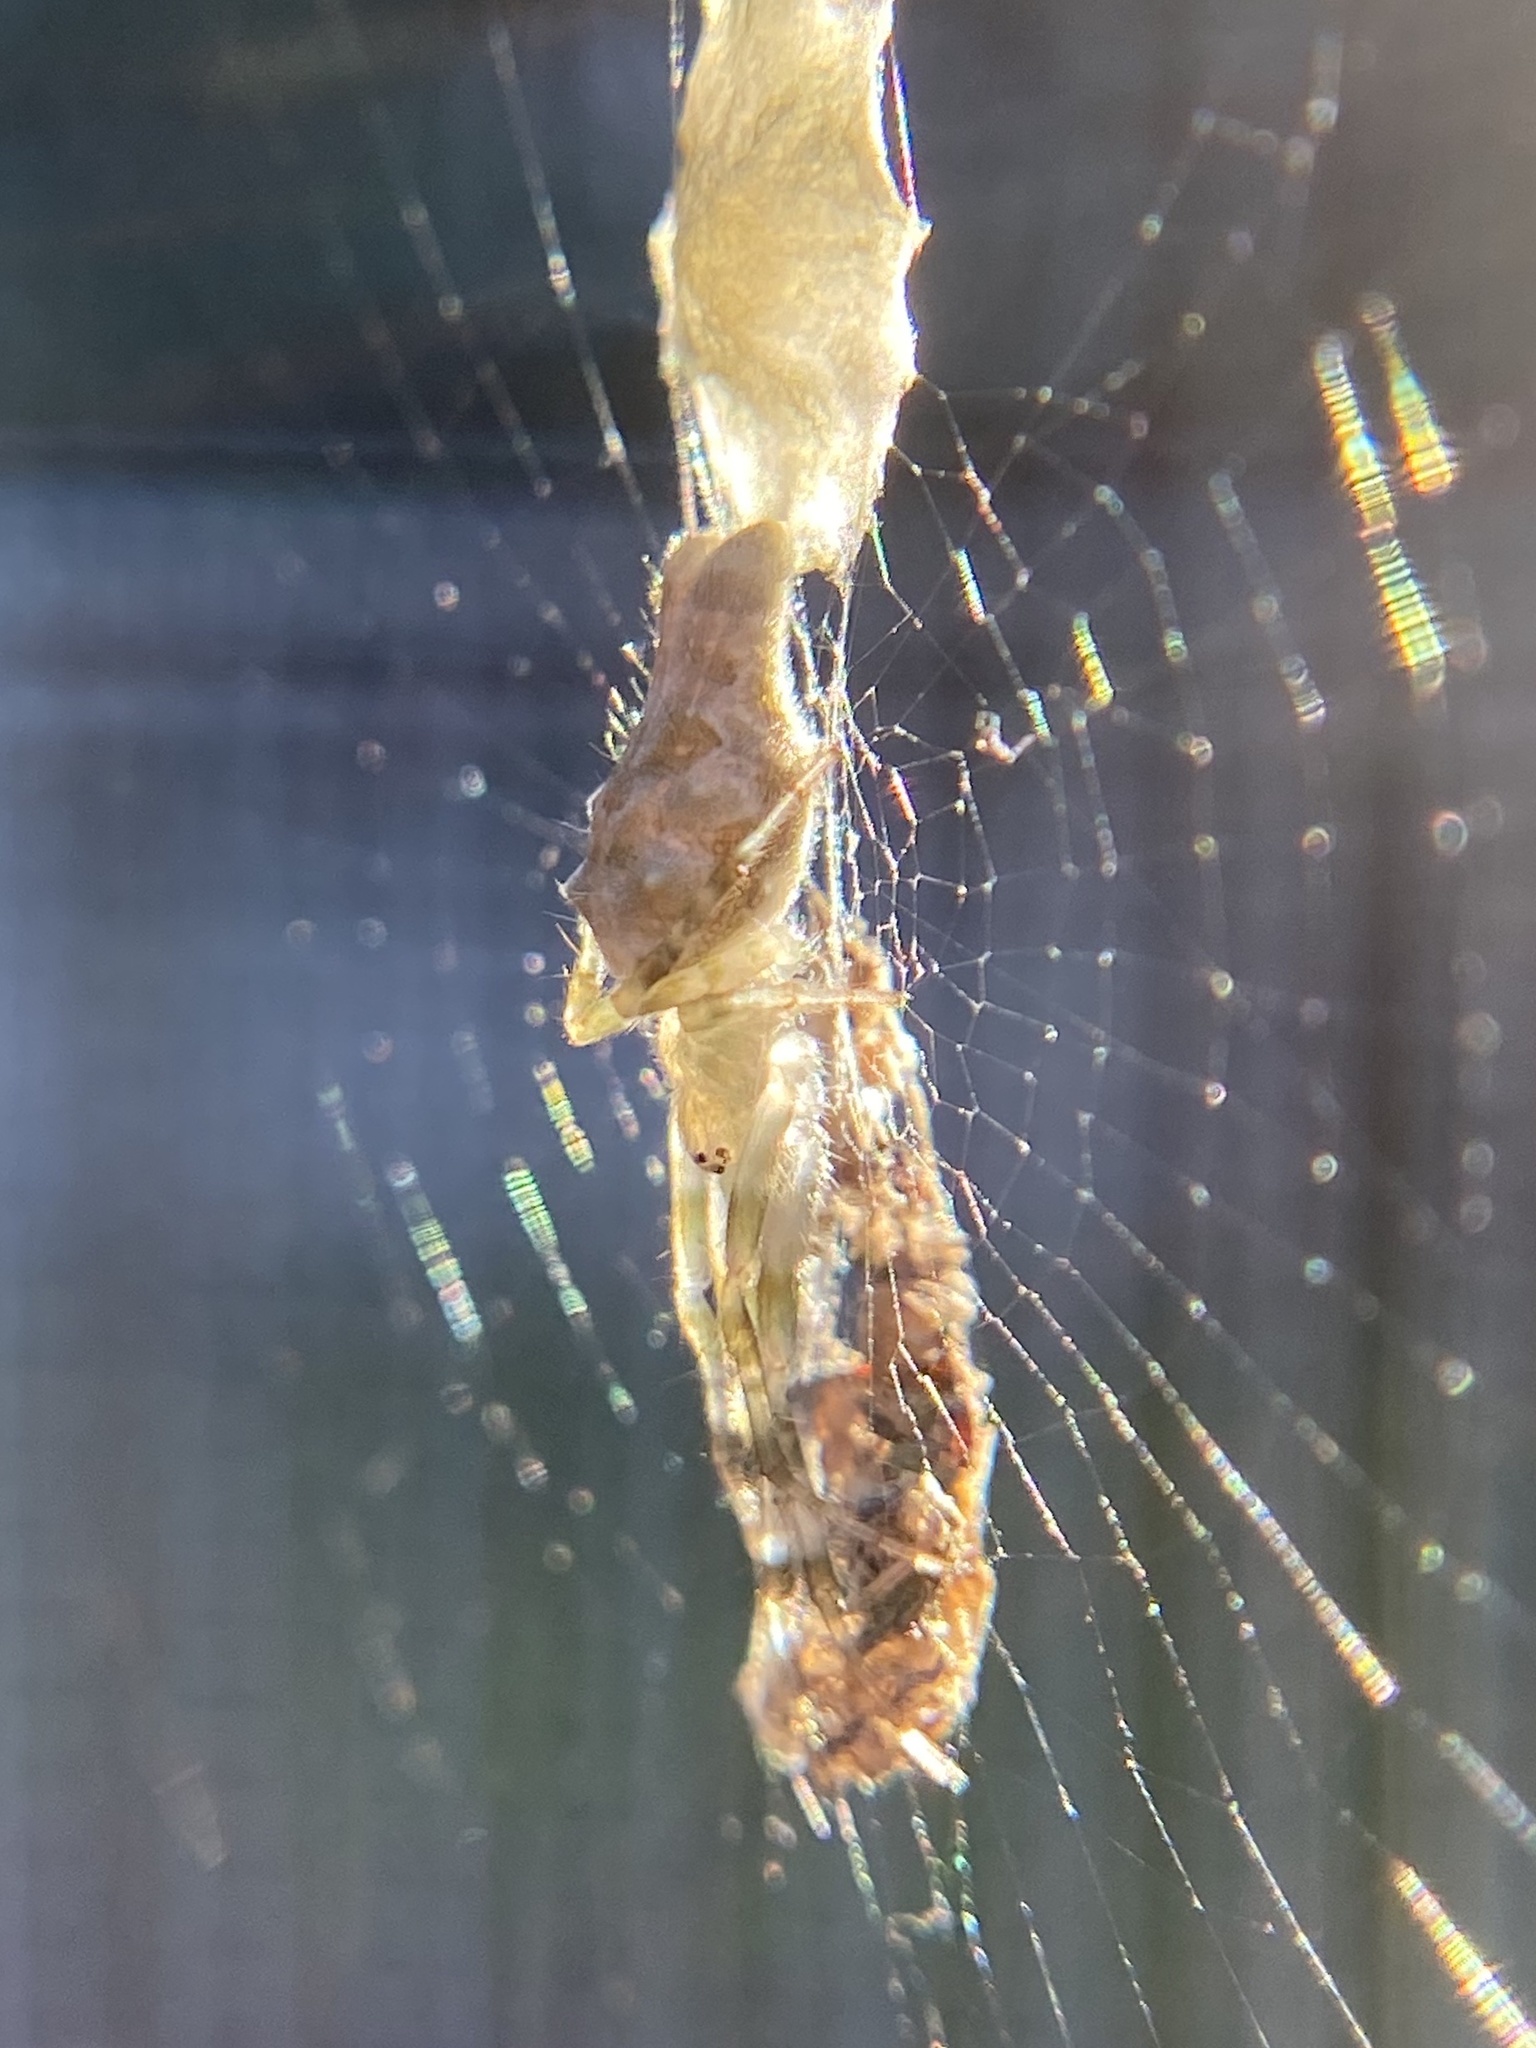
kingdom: Animalia
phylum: Arthropoda
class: Arachnida
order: Araneae
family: Araneidae
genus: Allocyclosa
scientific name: Allocyclosa bifurca
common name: Orb weavers
